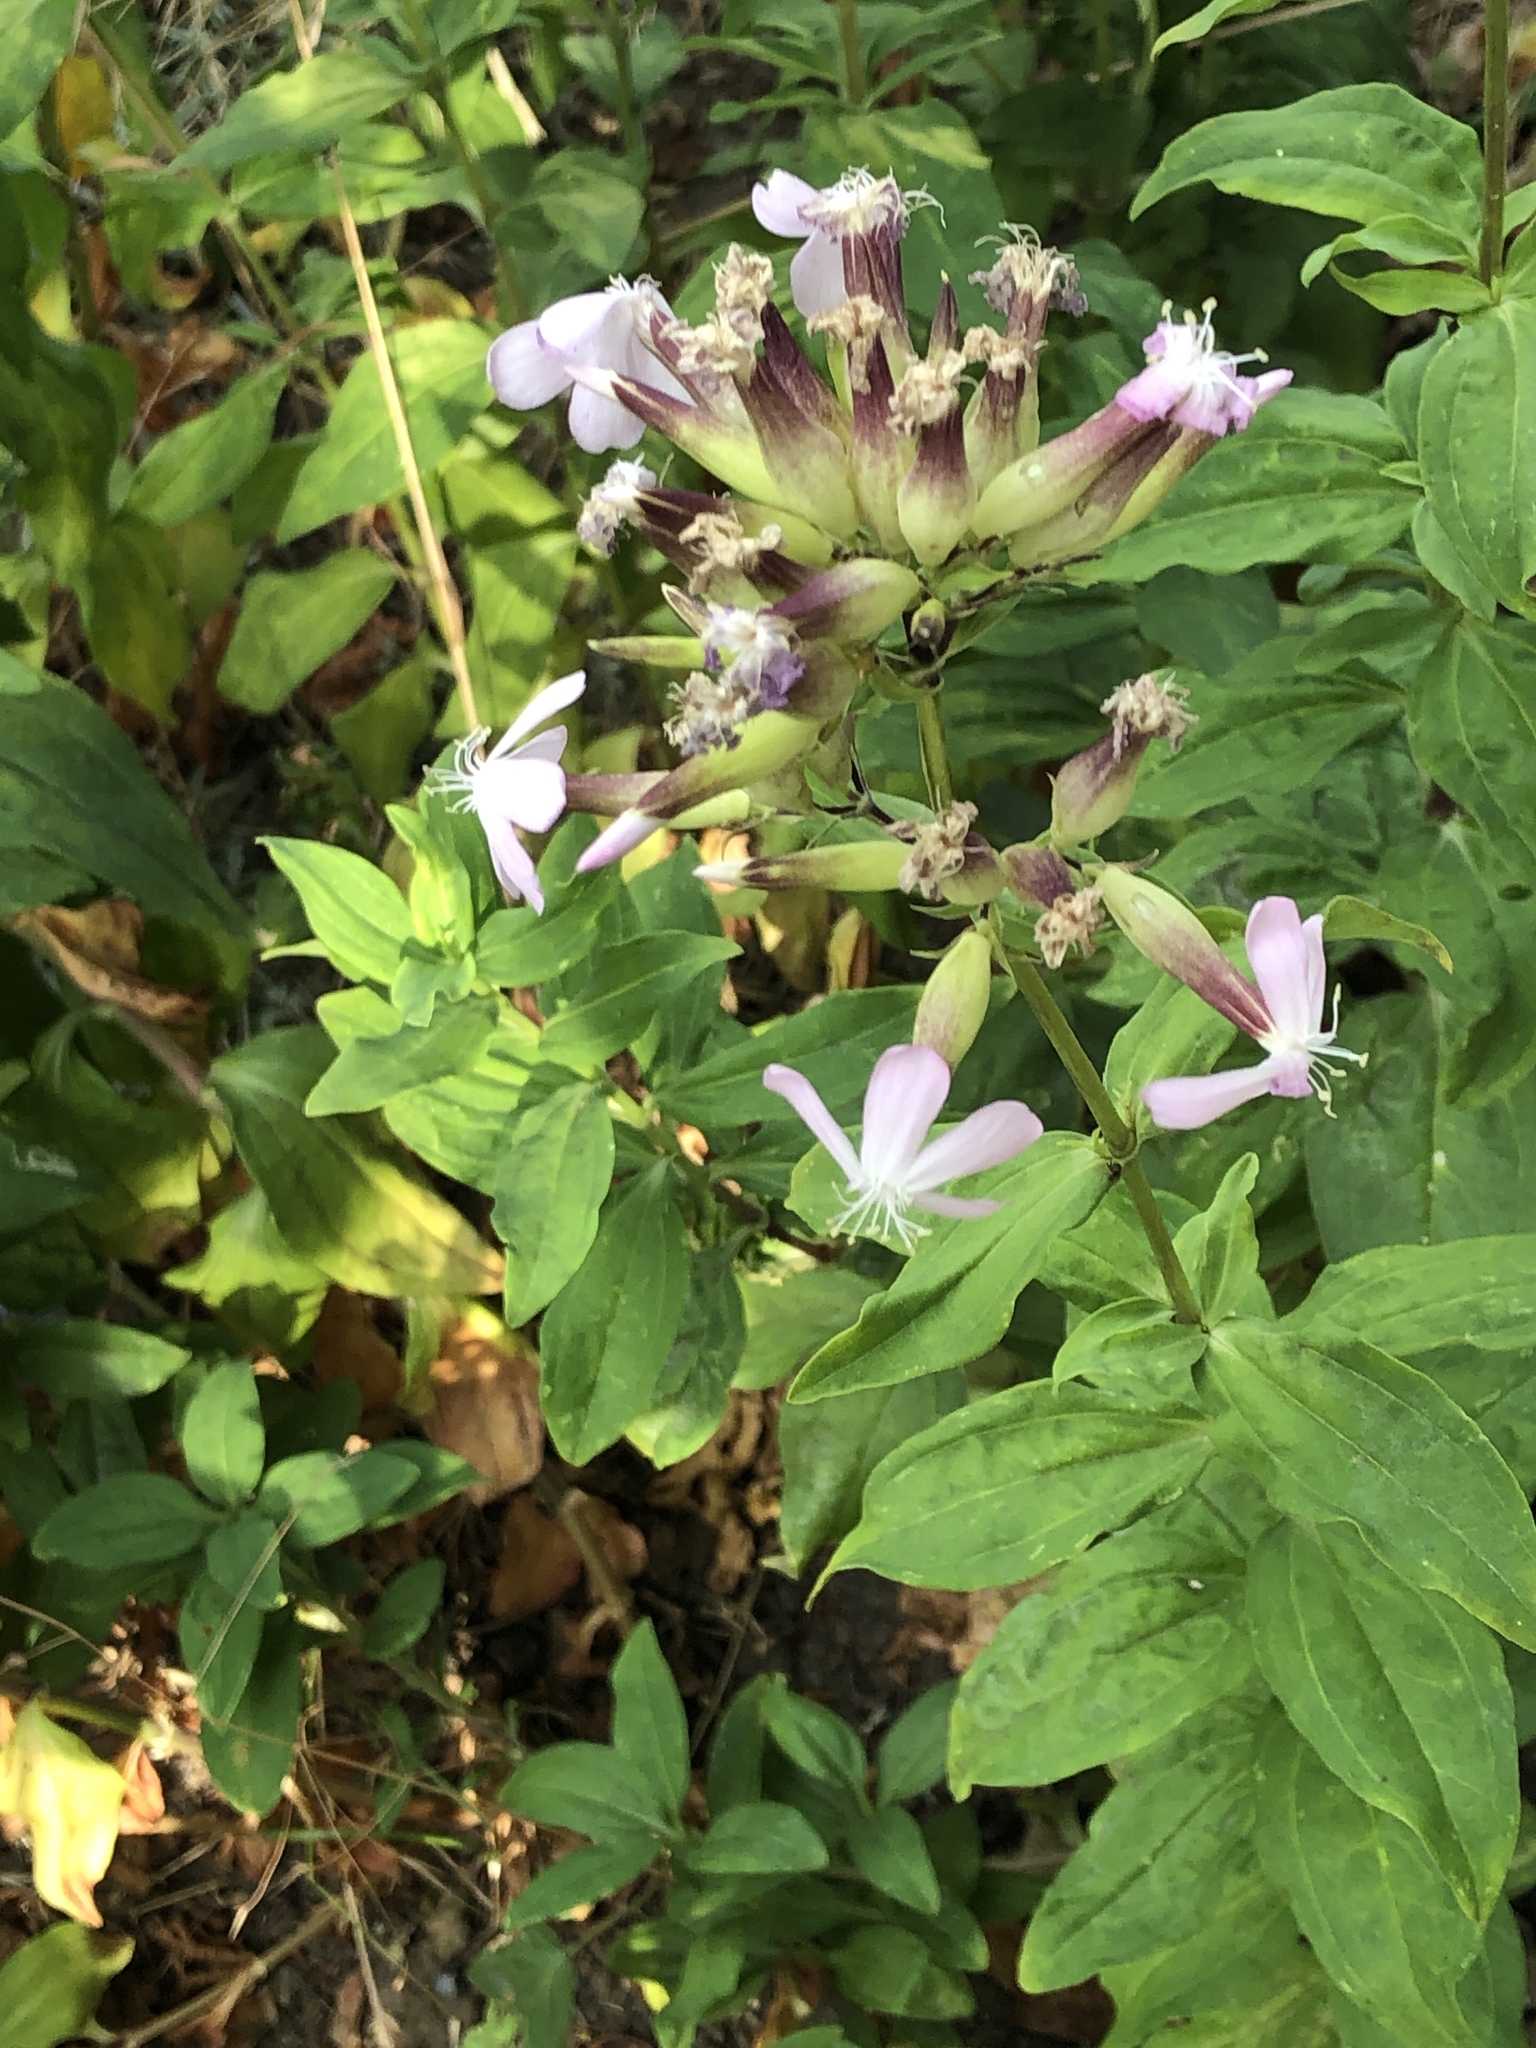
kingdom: Plantae
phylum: Tracheophyta
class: Magnoliopsida
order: Caryophyllales
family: Caryophyllaceae
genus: Saponaria
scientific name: Saponaria officinalis
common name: Soapwort
